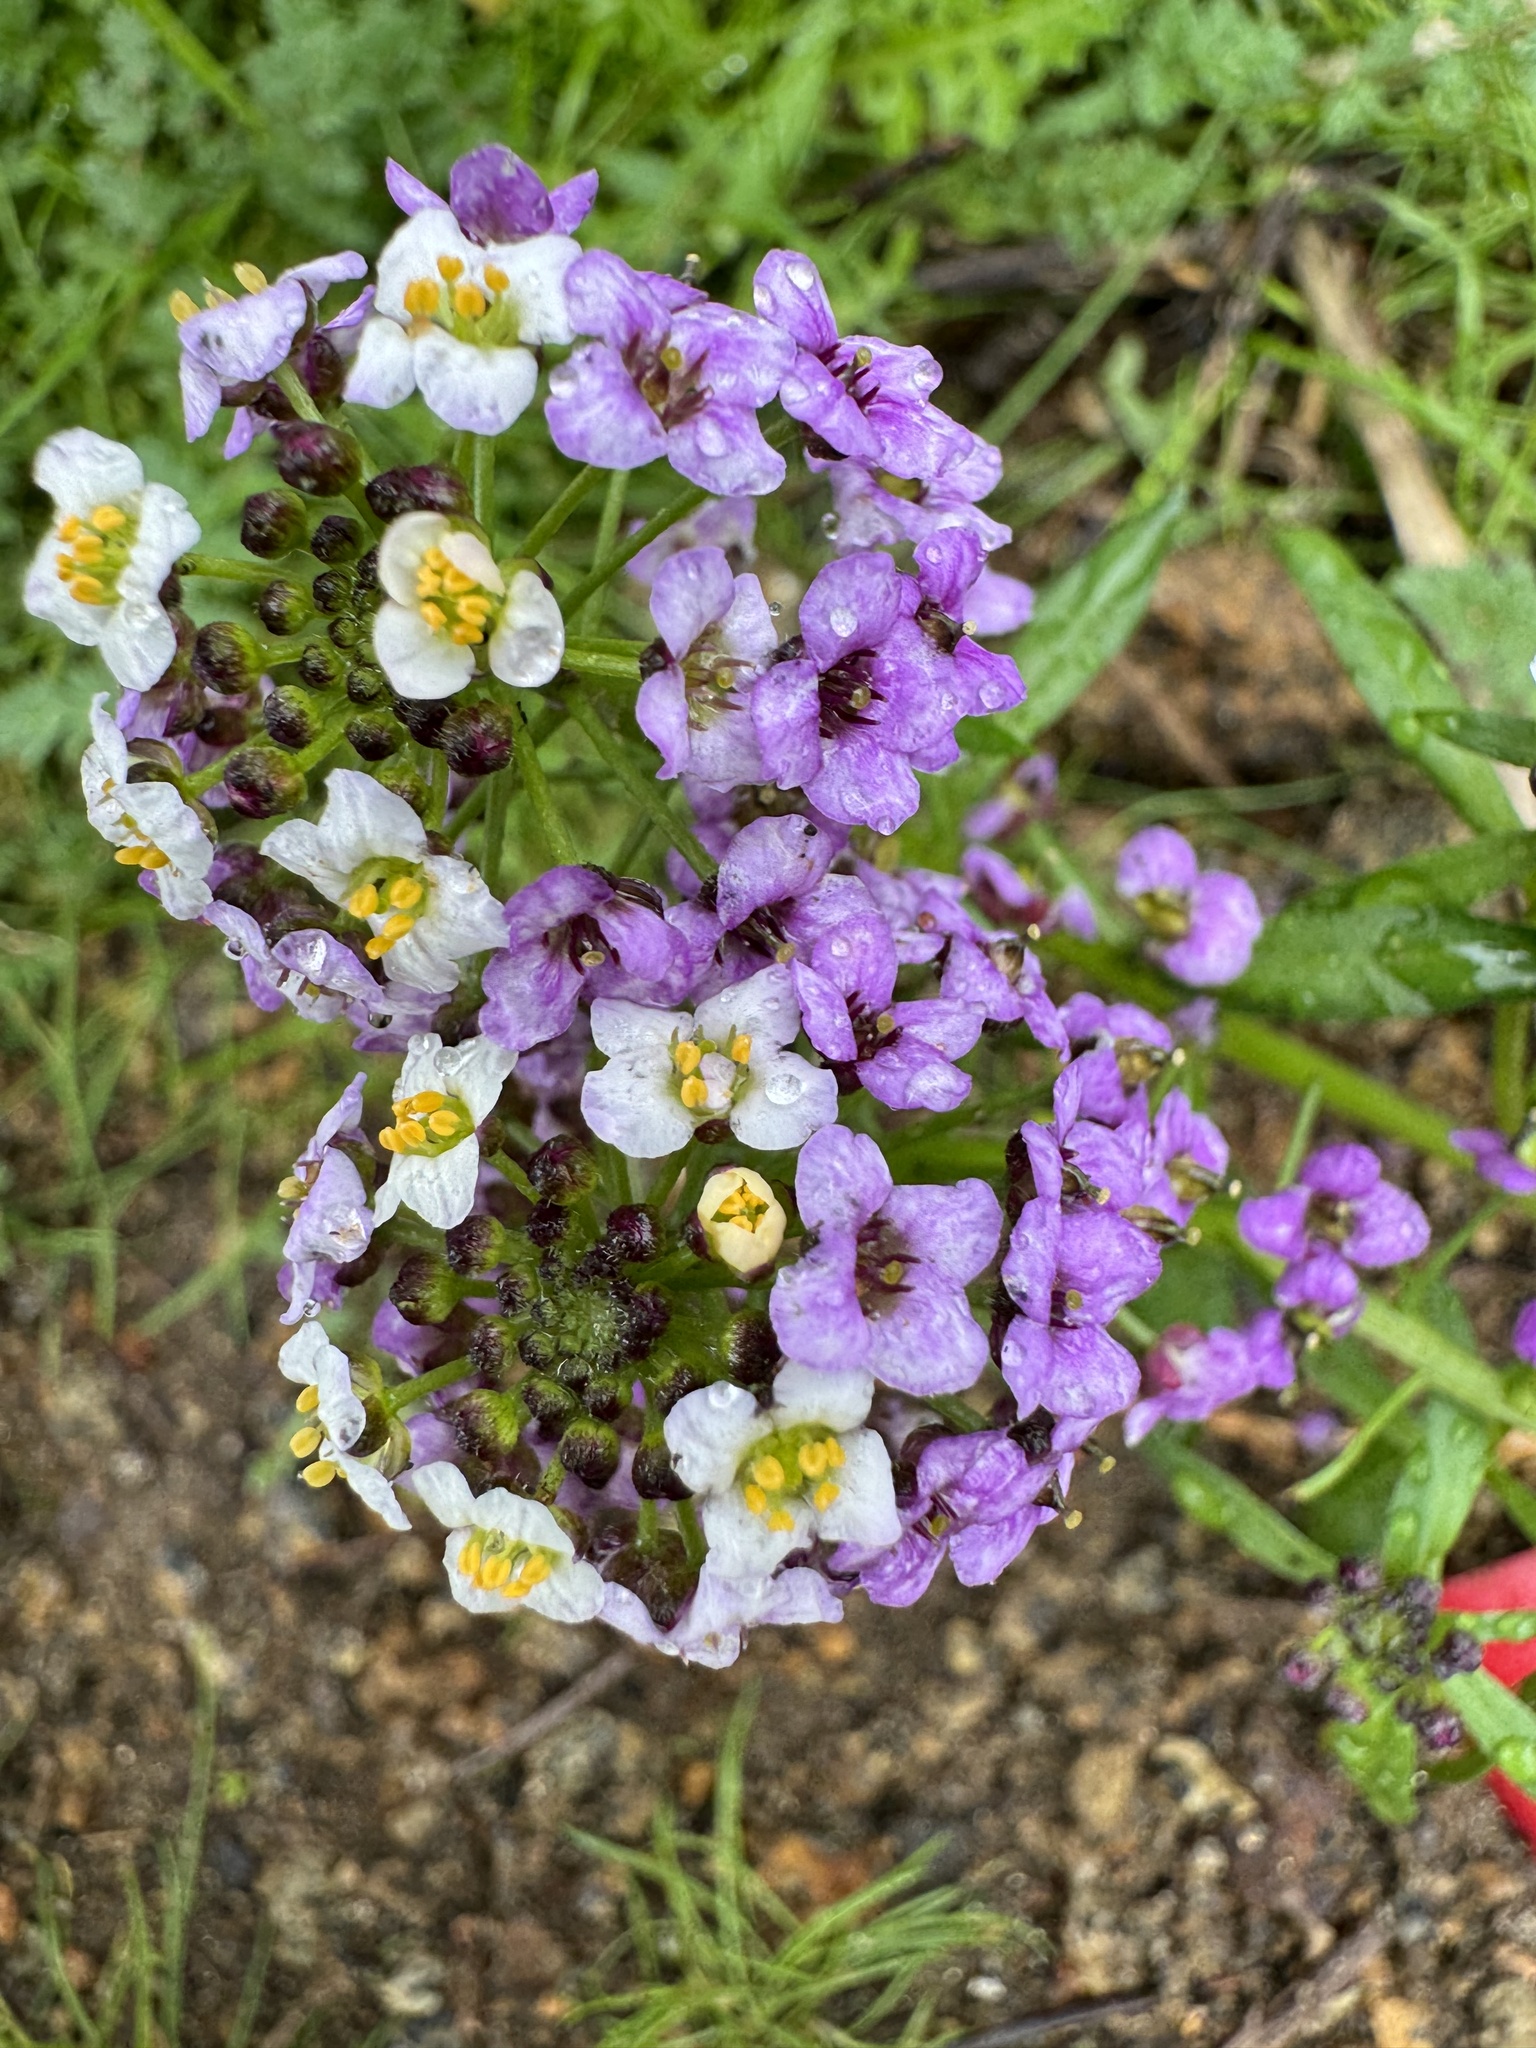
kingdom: Plantae
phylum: Tracheophyta
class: Magnoliopsida
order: Brassicales
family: Brassicaceae
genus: Lobularia
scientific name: Lobularia maritima
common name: Sweet alison
